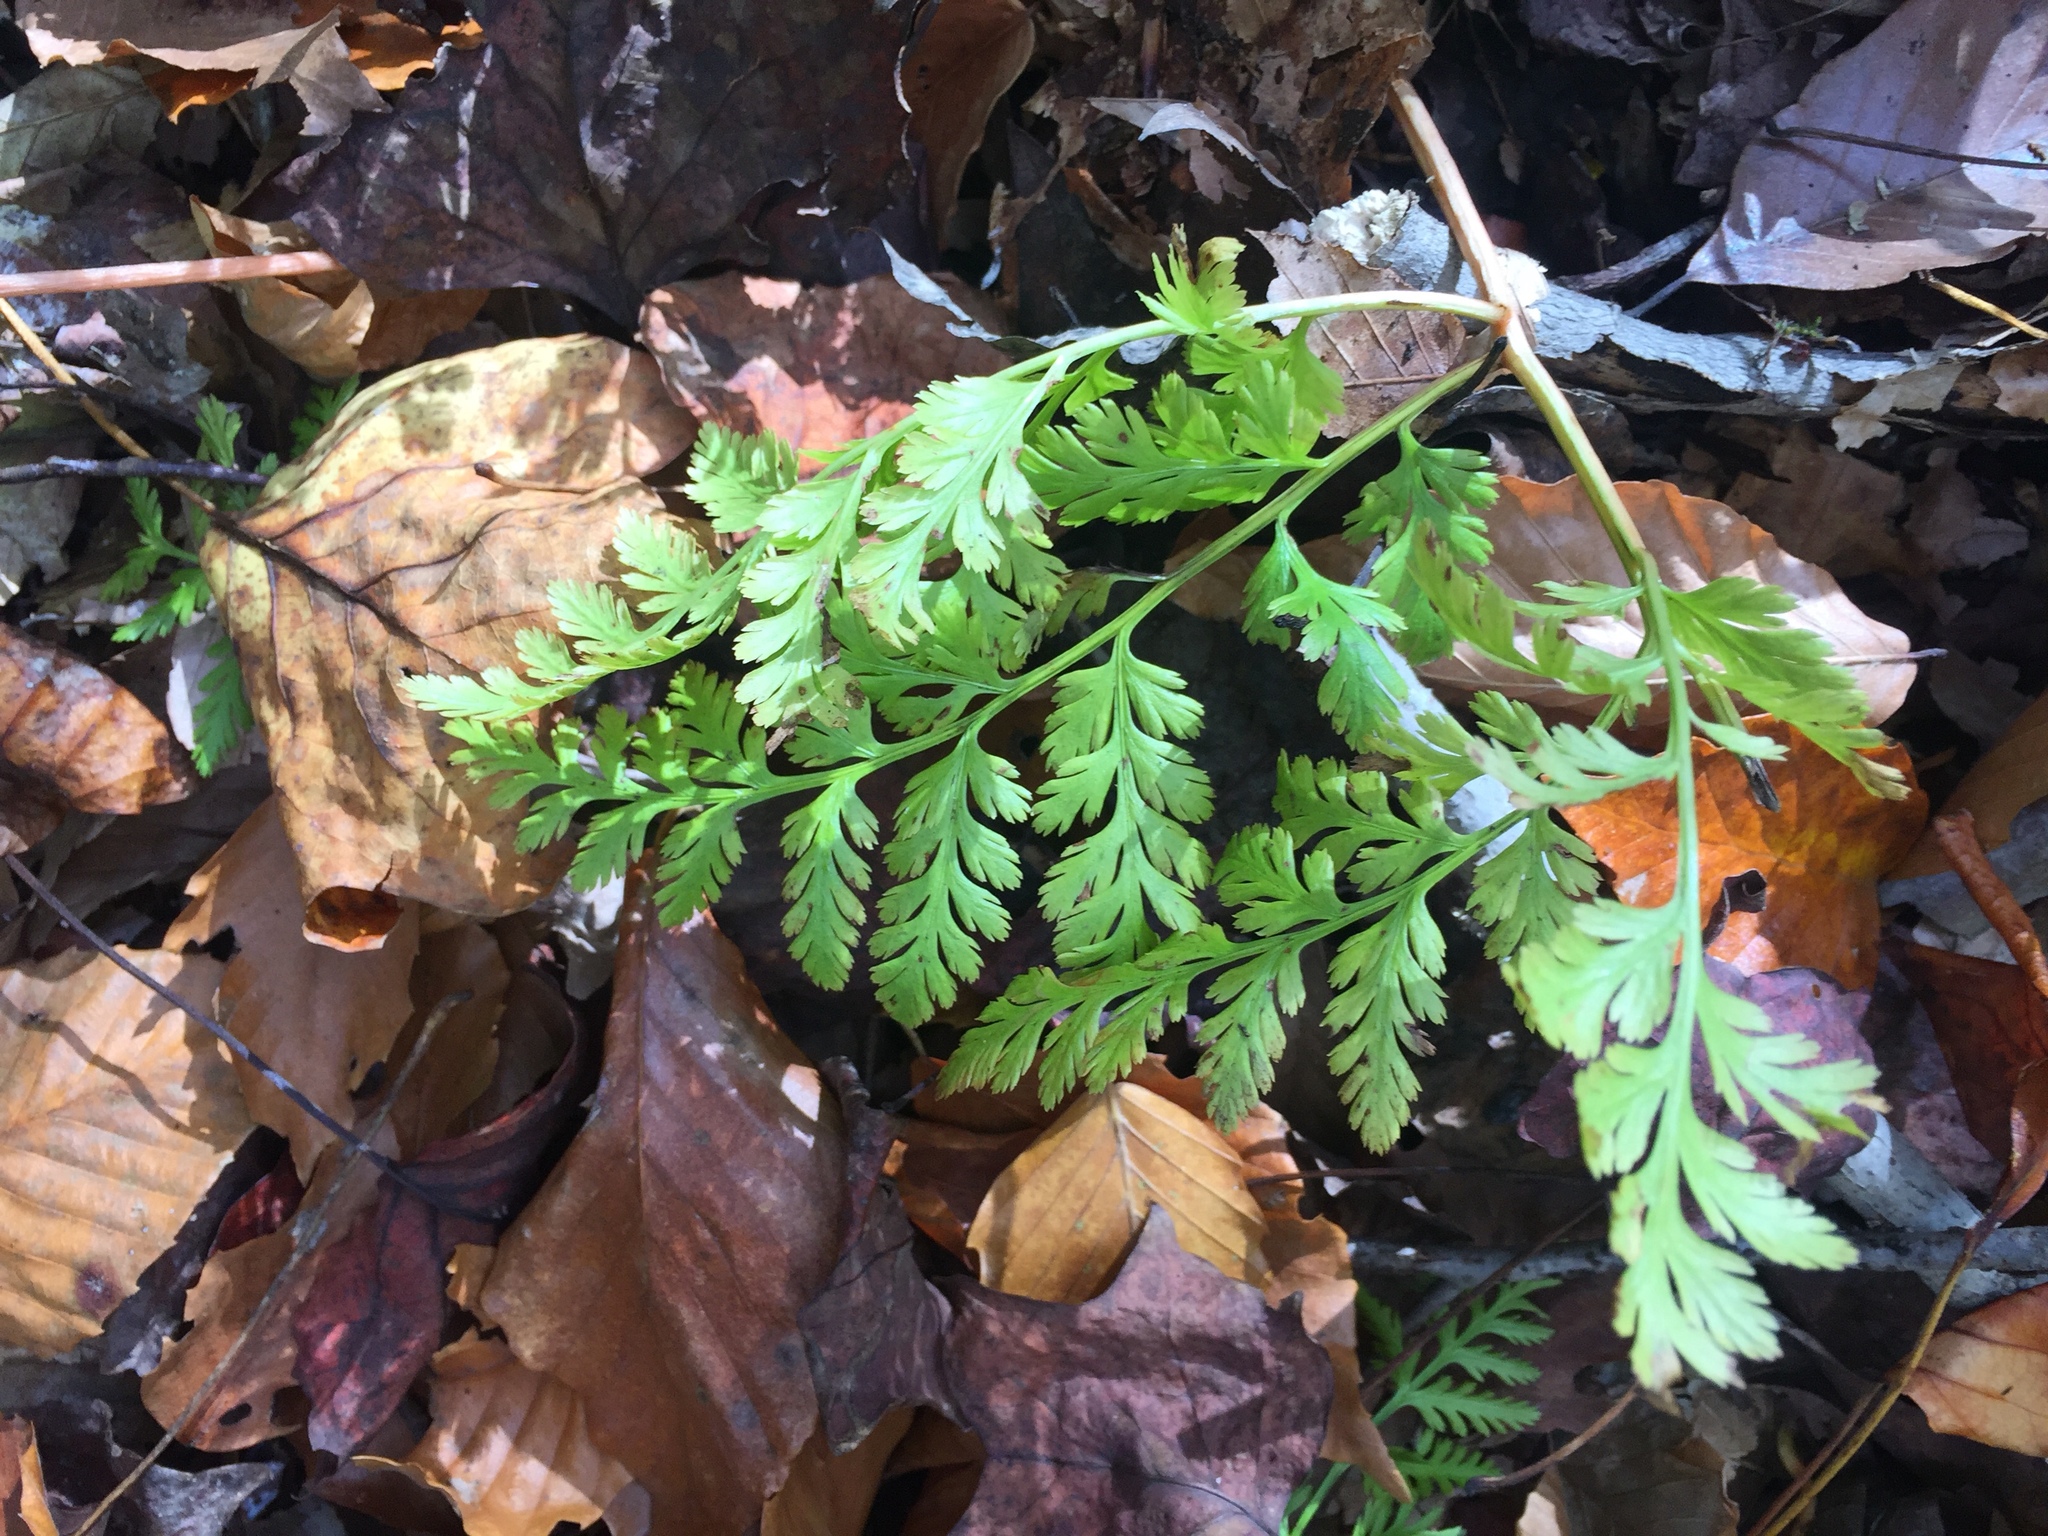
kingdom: Plantae
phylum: Tracheophyta
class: Polypodiopsida
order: Ophioglossales
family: Ophioglossaceae
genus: Botrypus
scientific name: Botrypus virginianus
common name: Common grapefern
